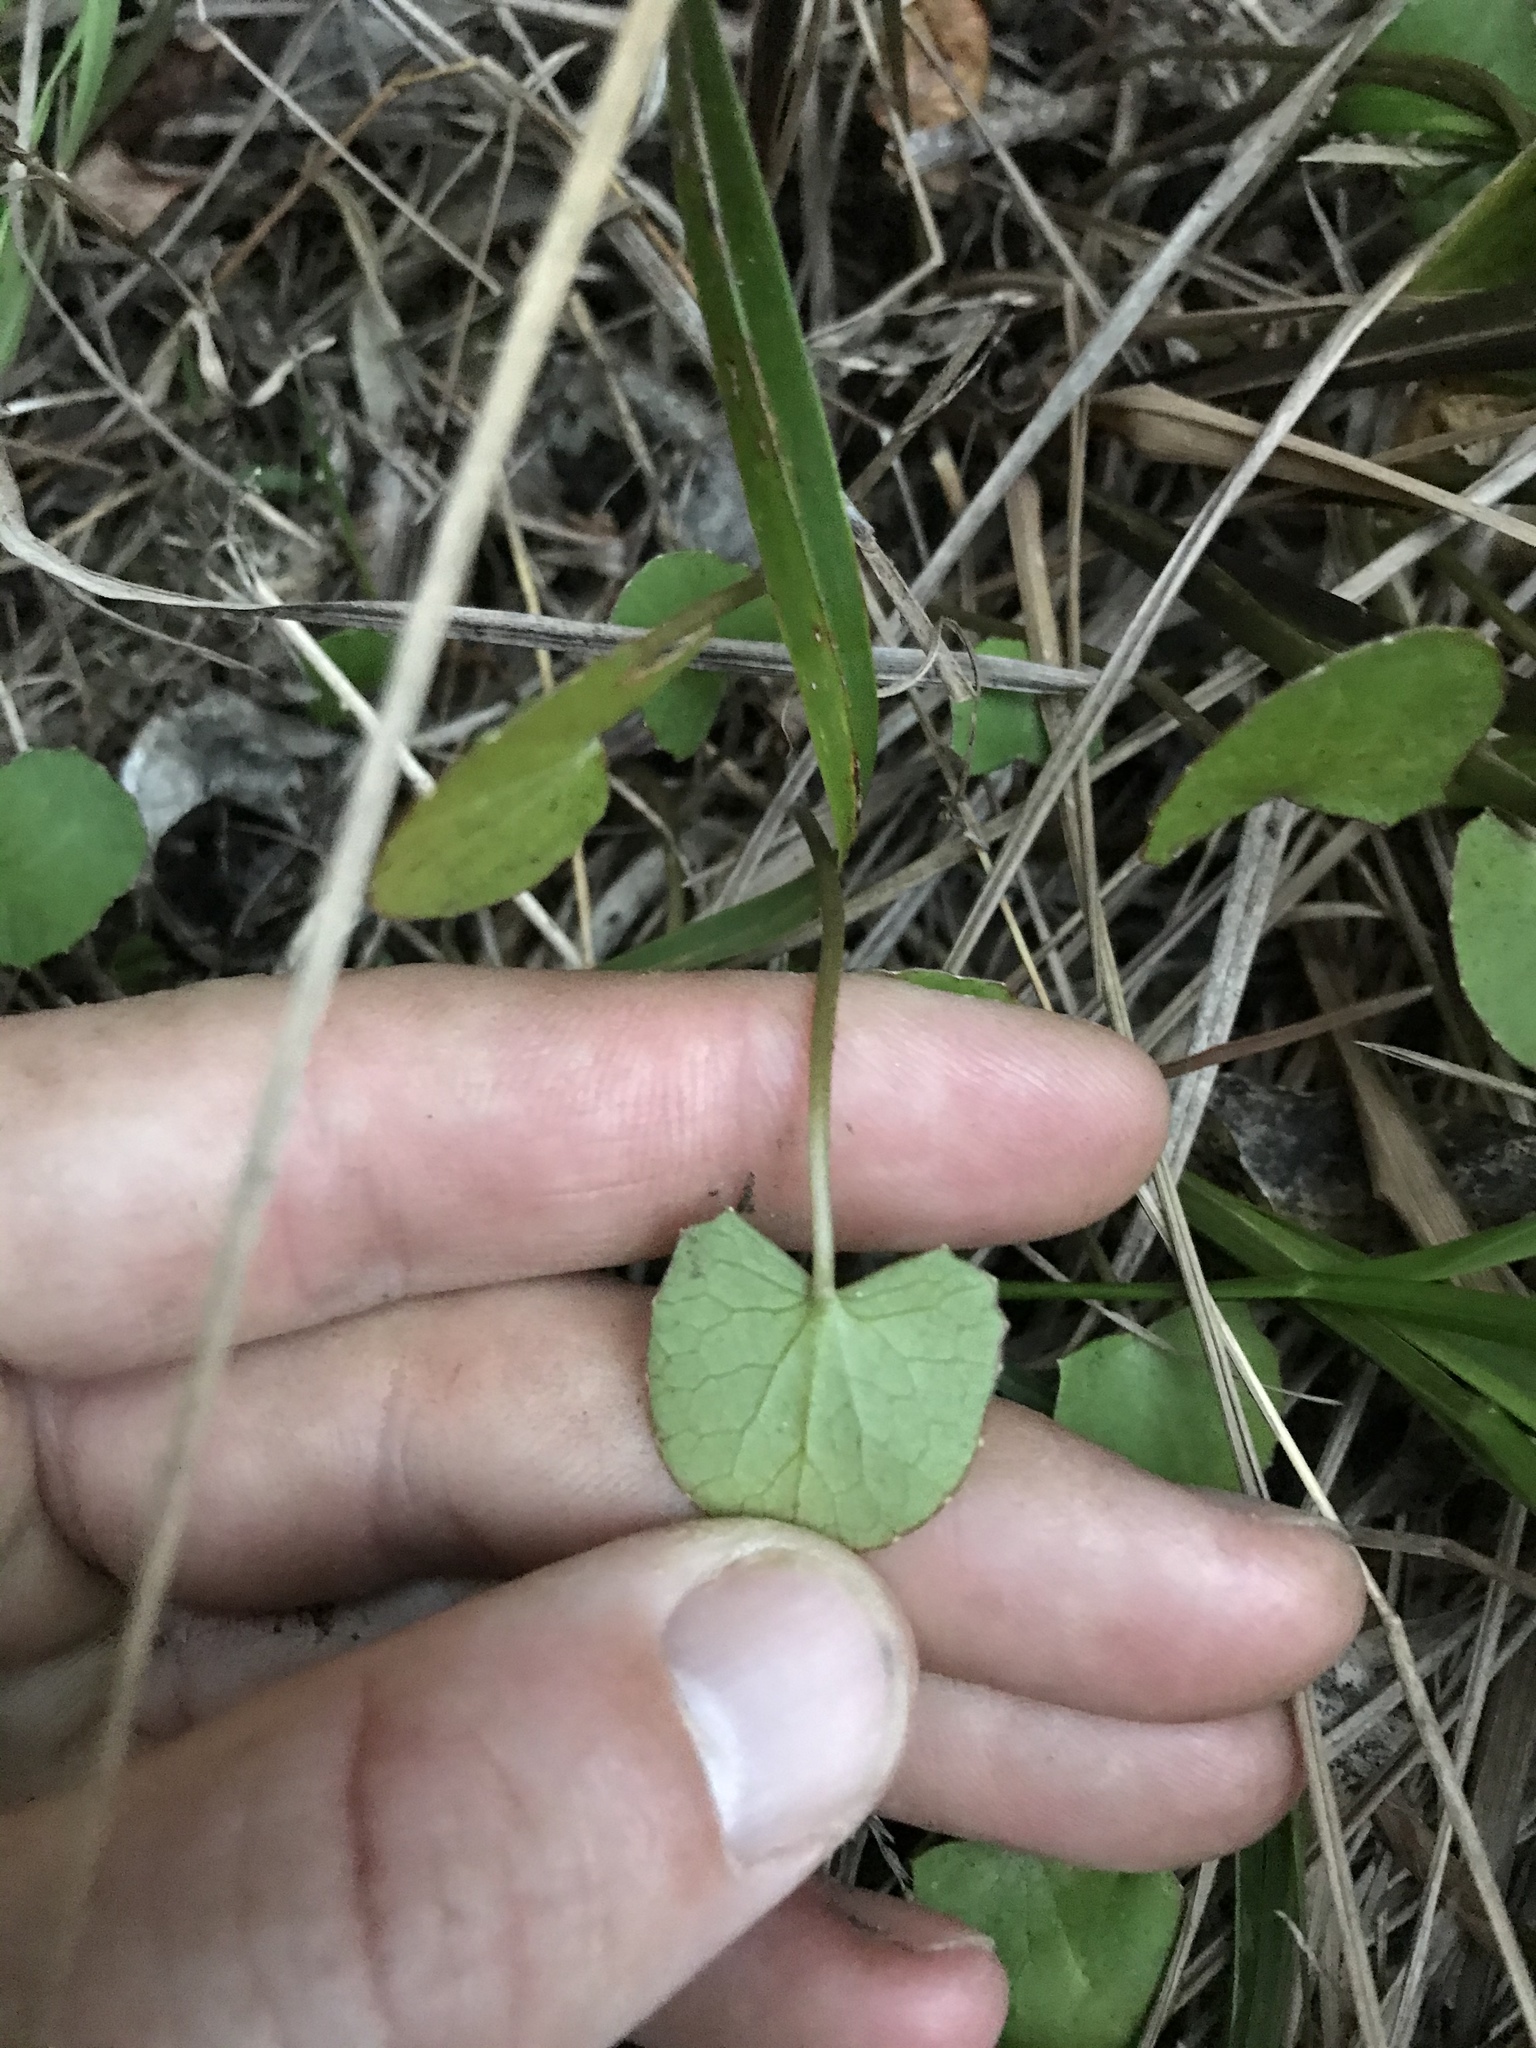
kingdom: Plantae
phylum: Tracheophyta
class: Magnoliopsida
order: Apiales
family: Apiaceae
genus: Centella
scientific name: Centella uniflora
